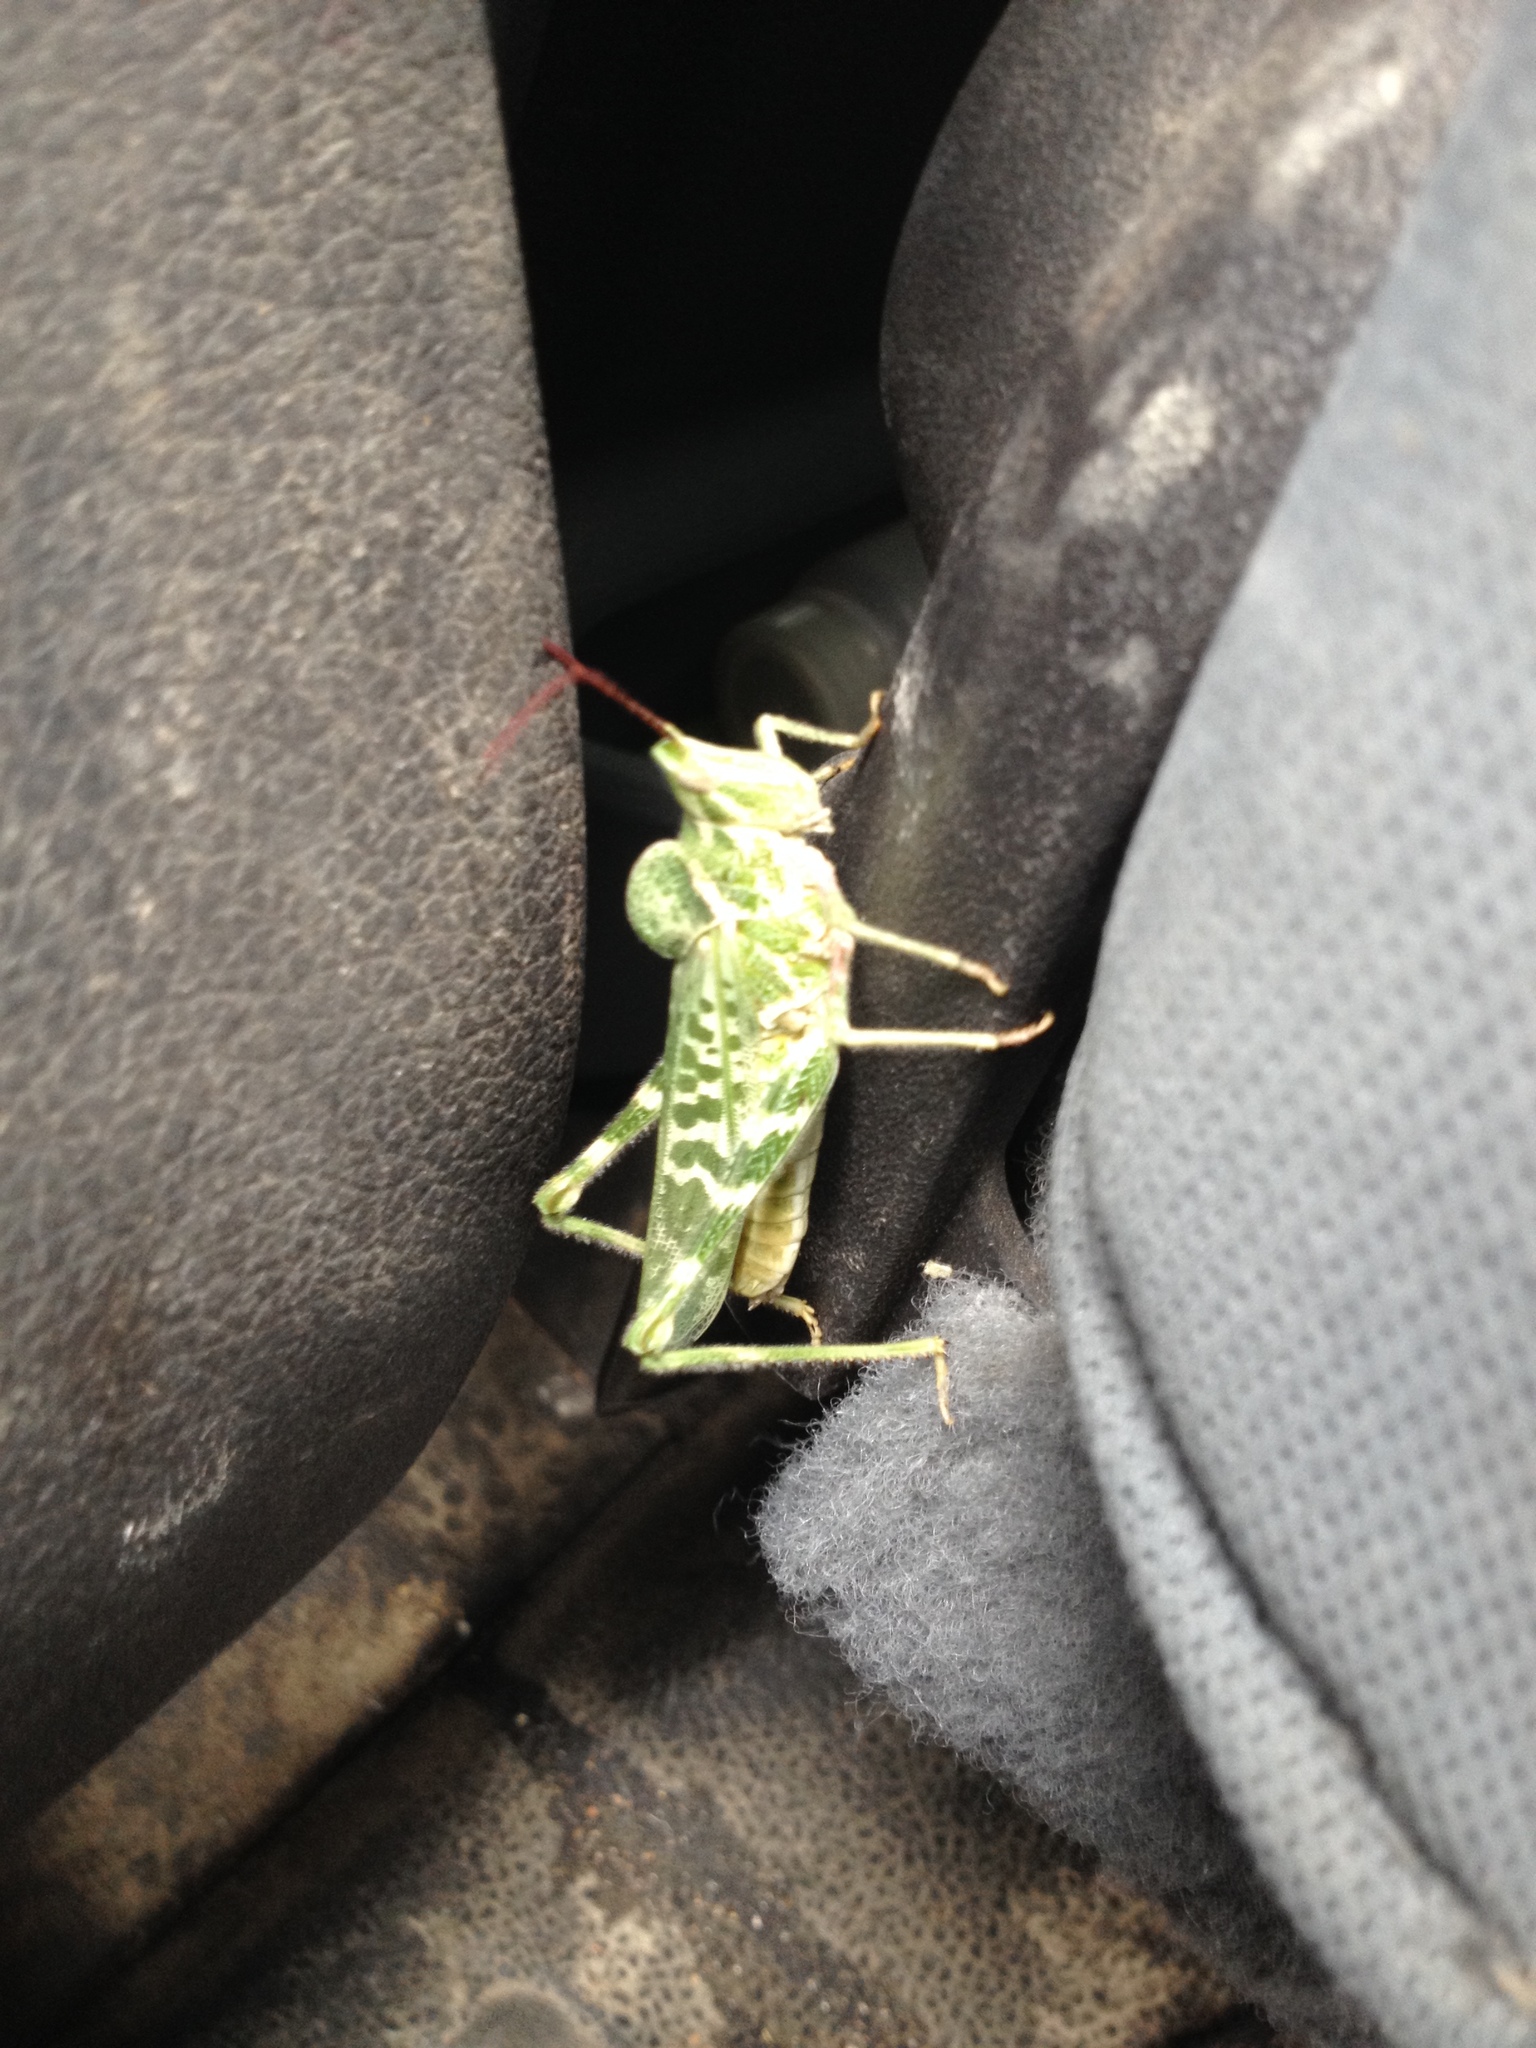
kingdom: Animalia
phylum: Arthropoda
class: Insecta
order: Orthoptera
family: Acrididae
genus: Acrolophitus
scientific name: Acrolophitus hirtipes
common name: Green fool grasshopper
